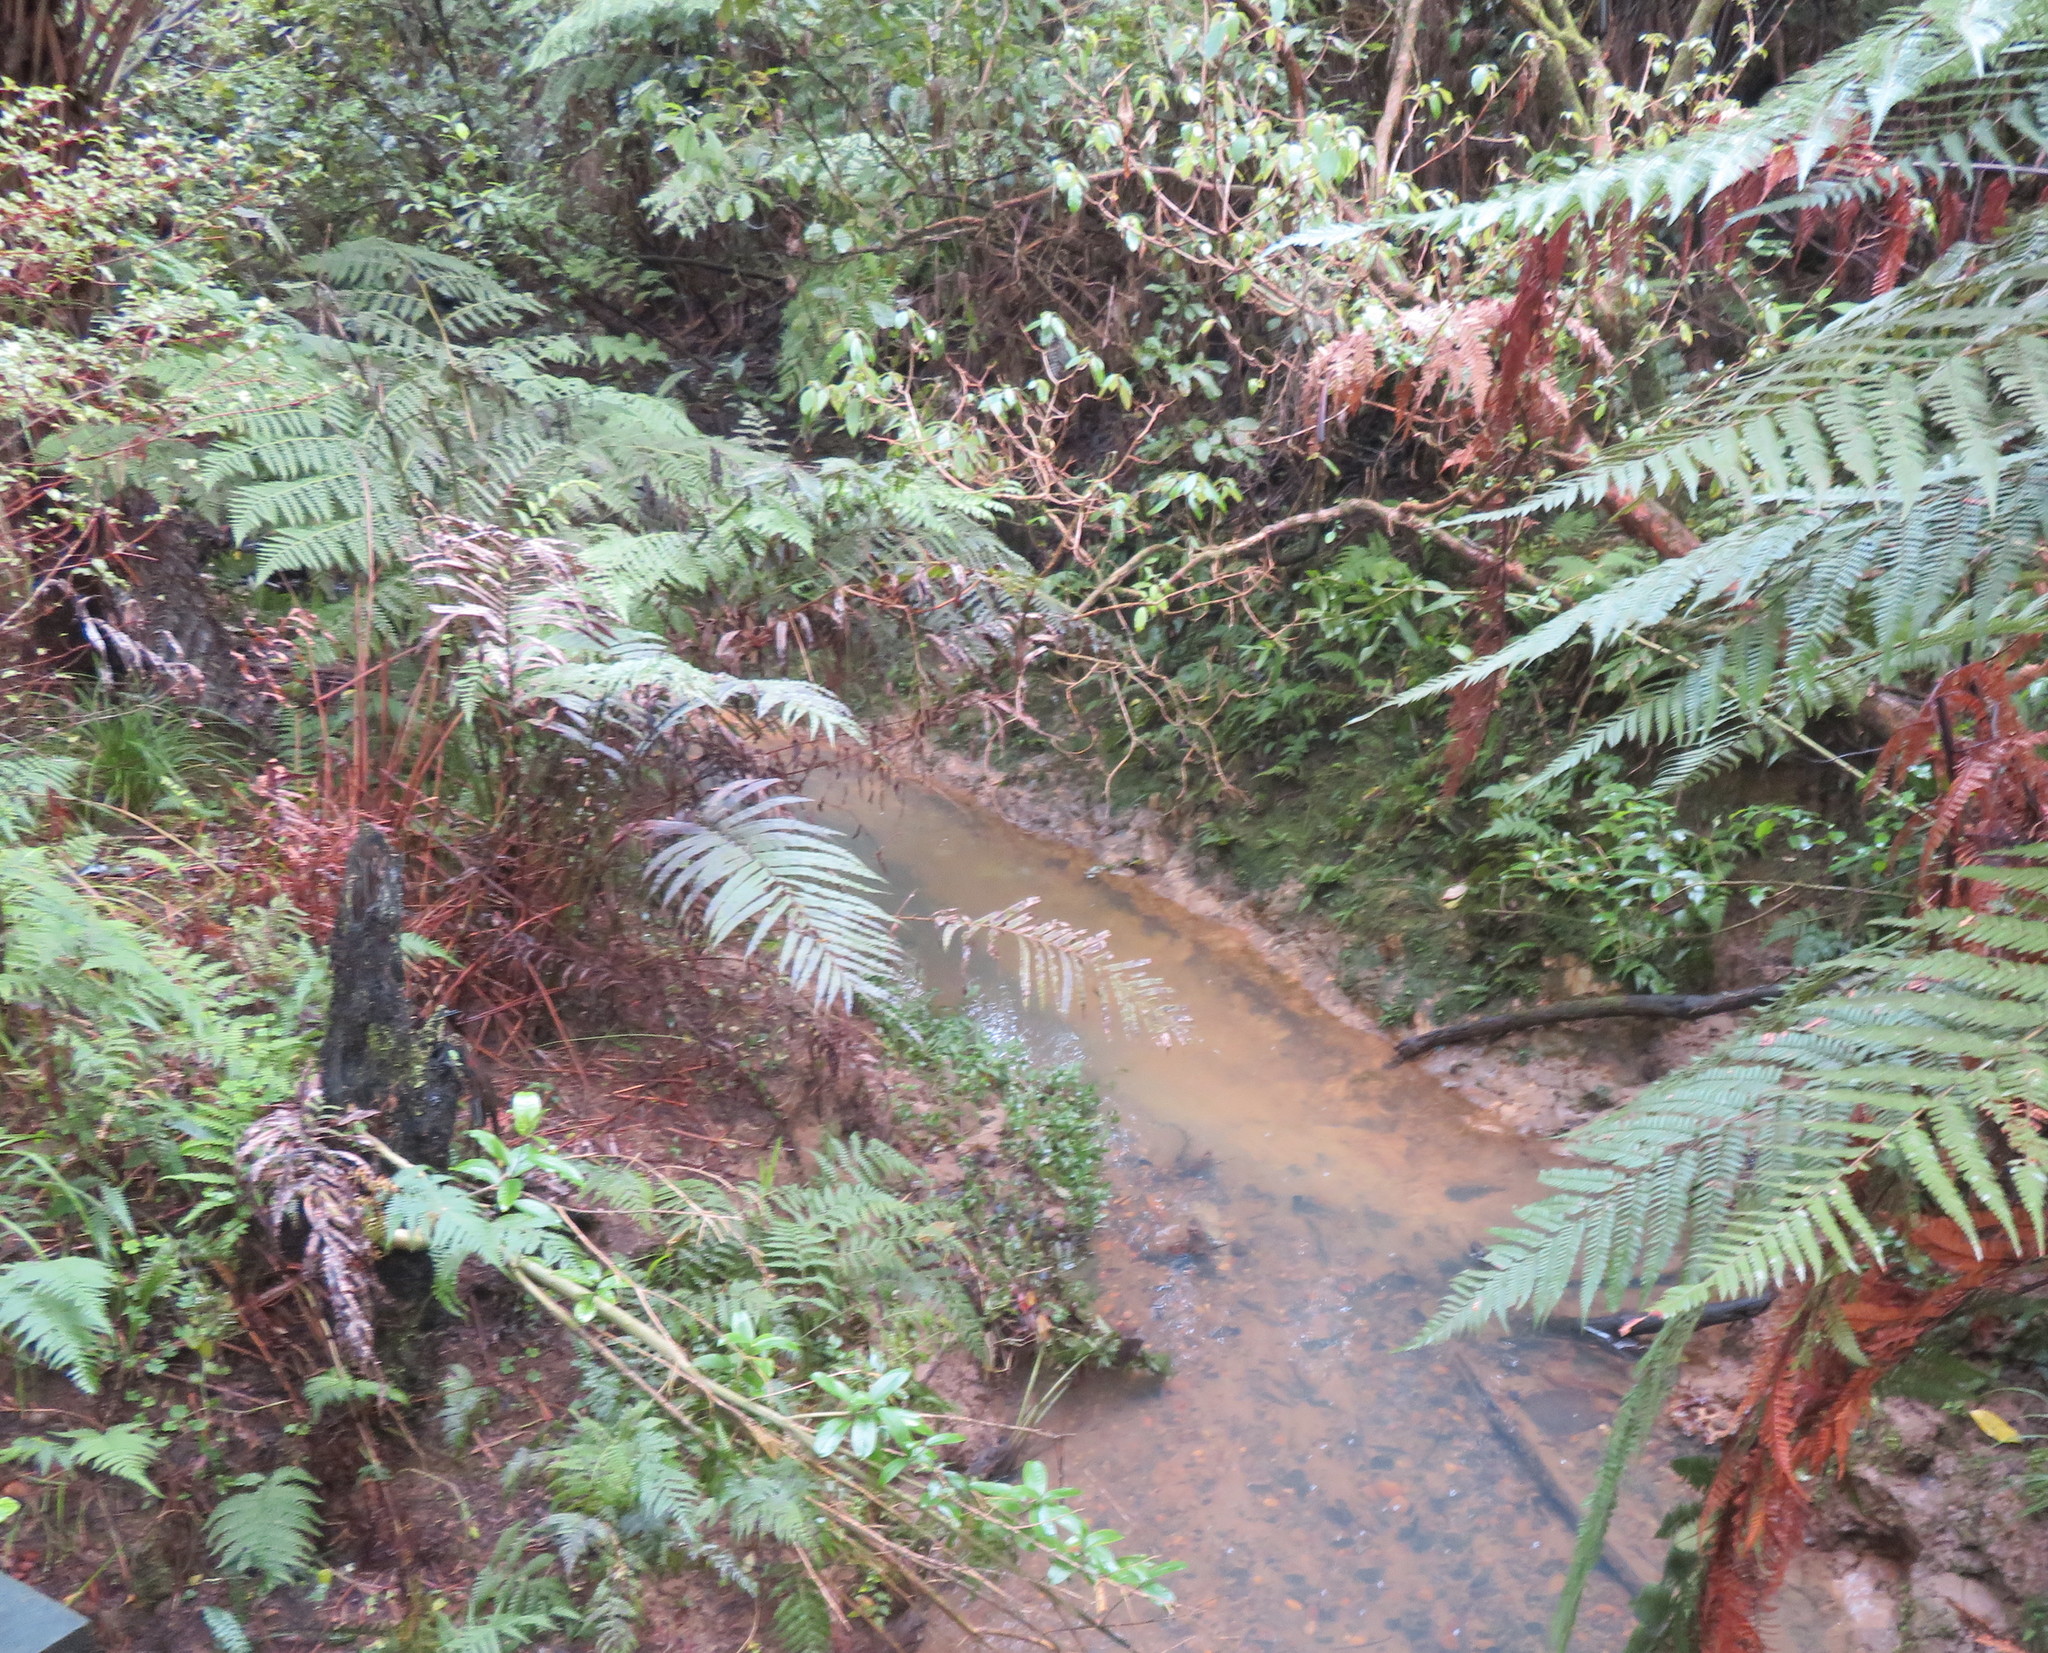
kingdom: Plantae
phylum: Tracheophyta
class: Magnoliopsida
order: Myrtales
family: Onagraceae
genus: Fuchsia
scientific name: Fuchsia excorticata
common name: Tree fuchsia
